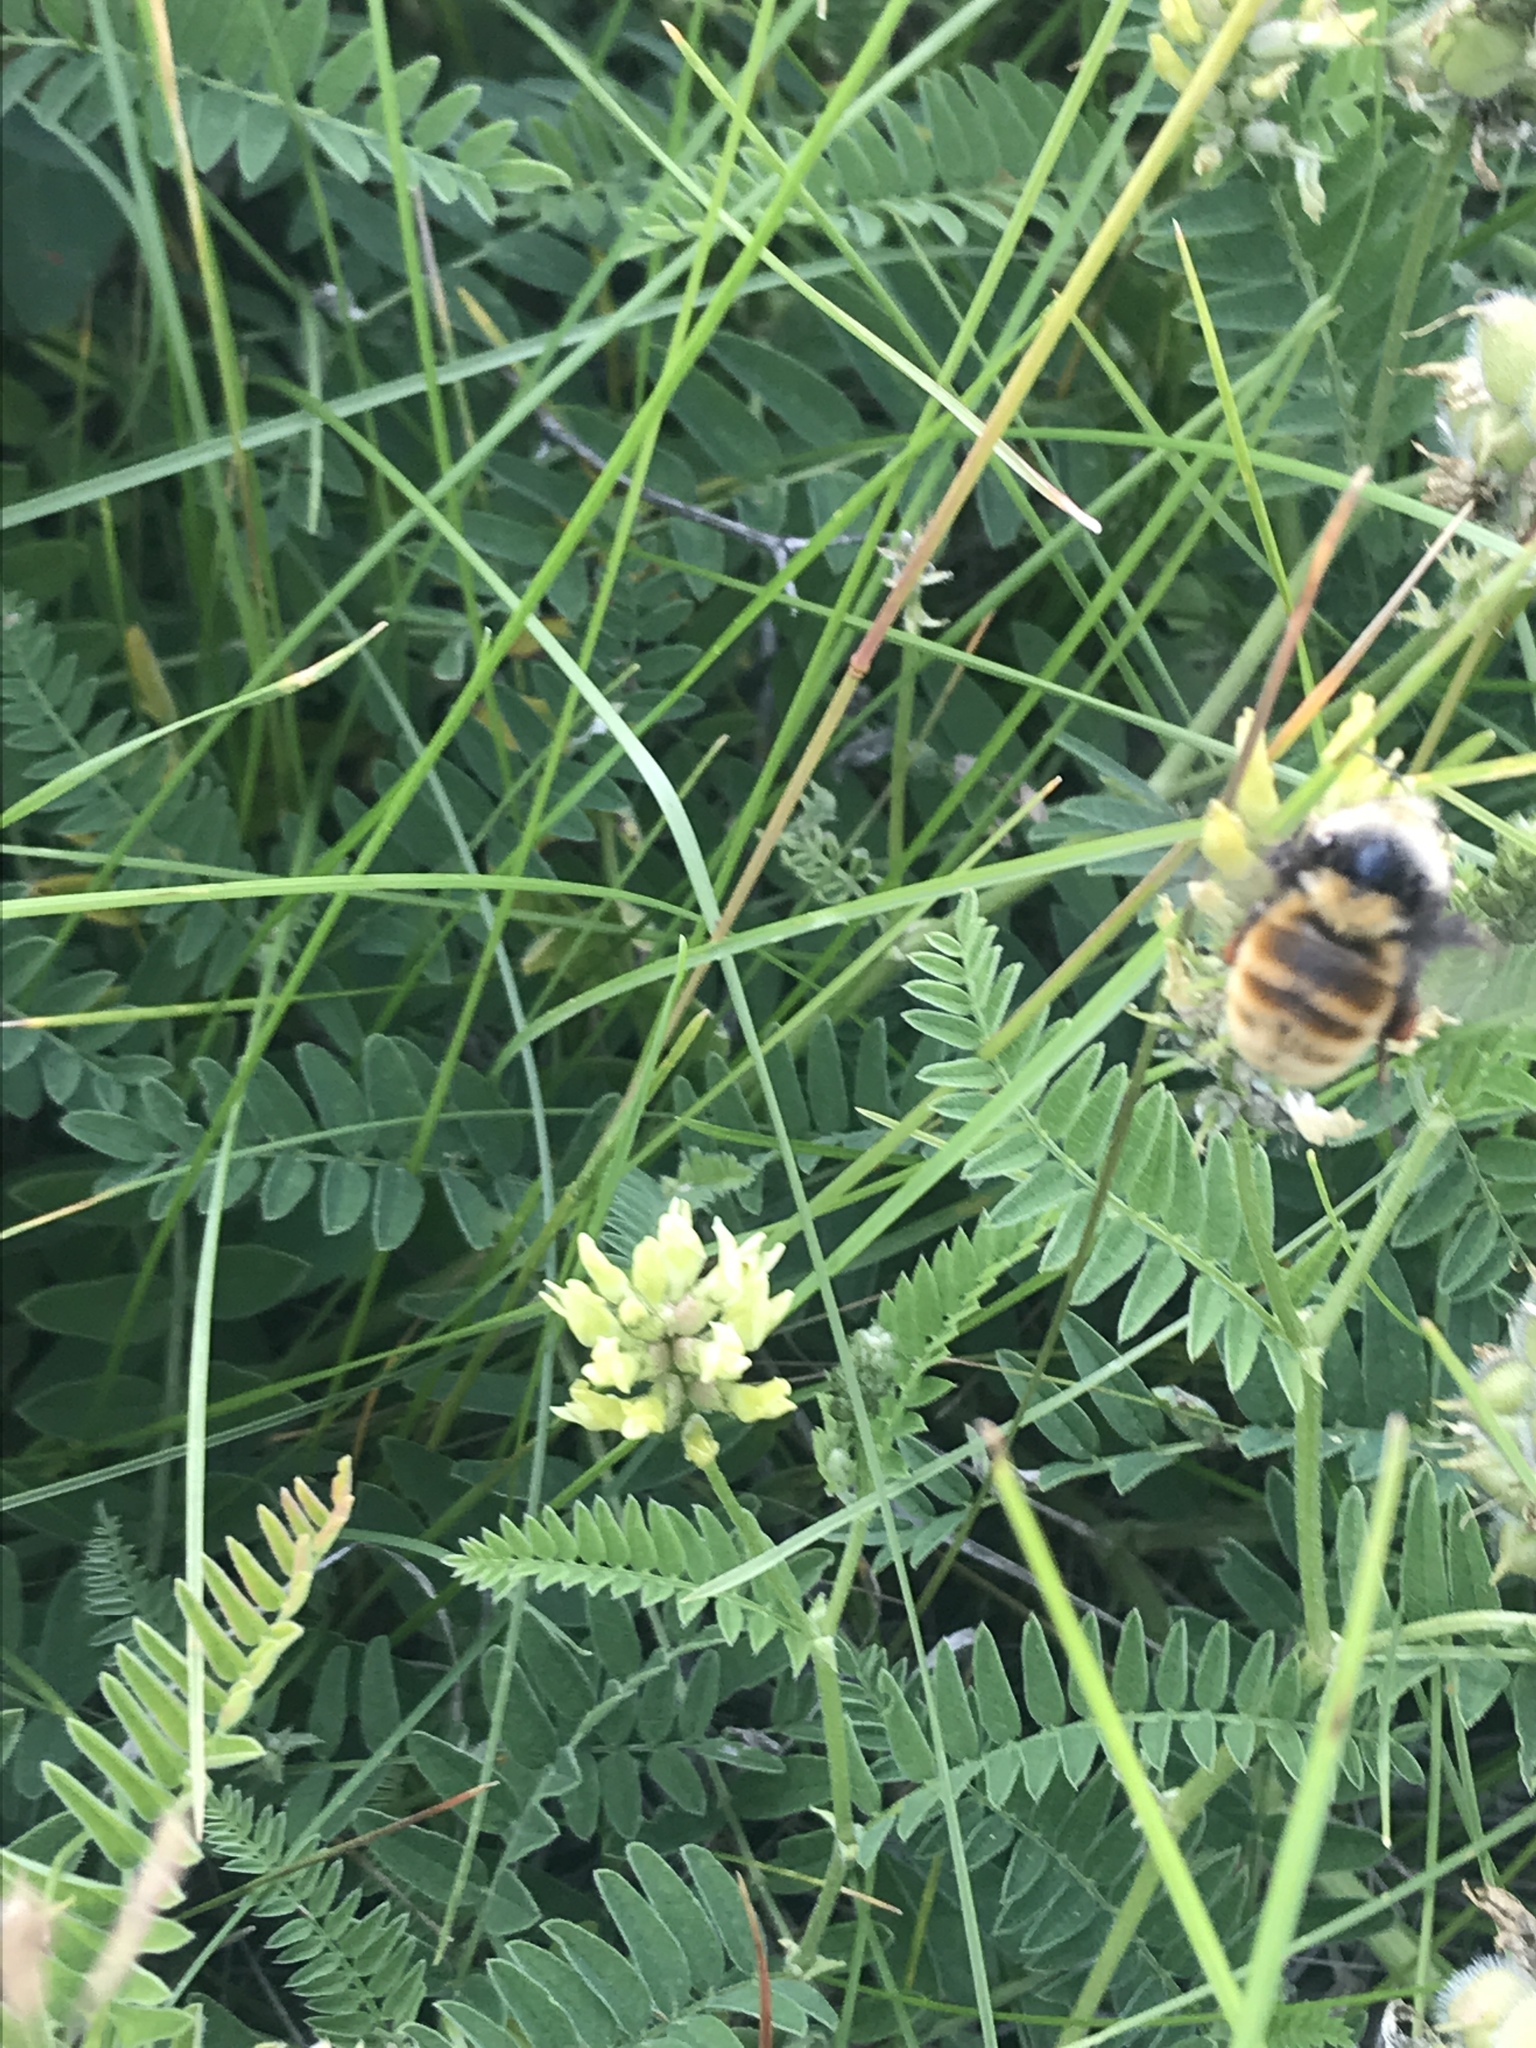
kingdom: Animalia
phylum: Arthropoda
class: Insecta
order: Hymenoptera
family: Apidae
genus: Bombus
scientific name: Bombus appositus
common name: White-shouldered bumble bee
